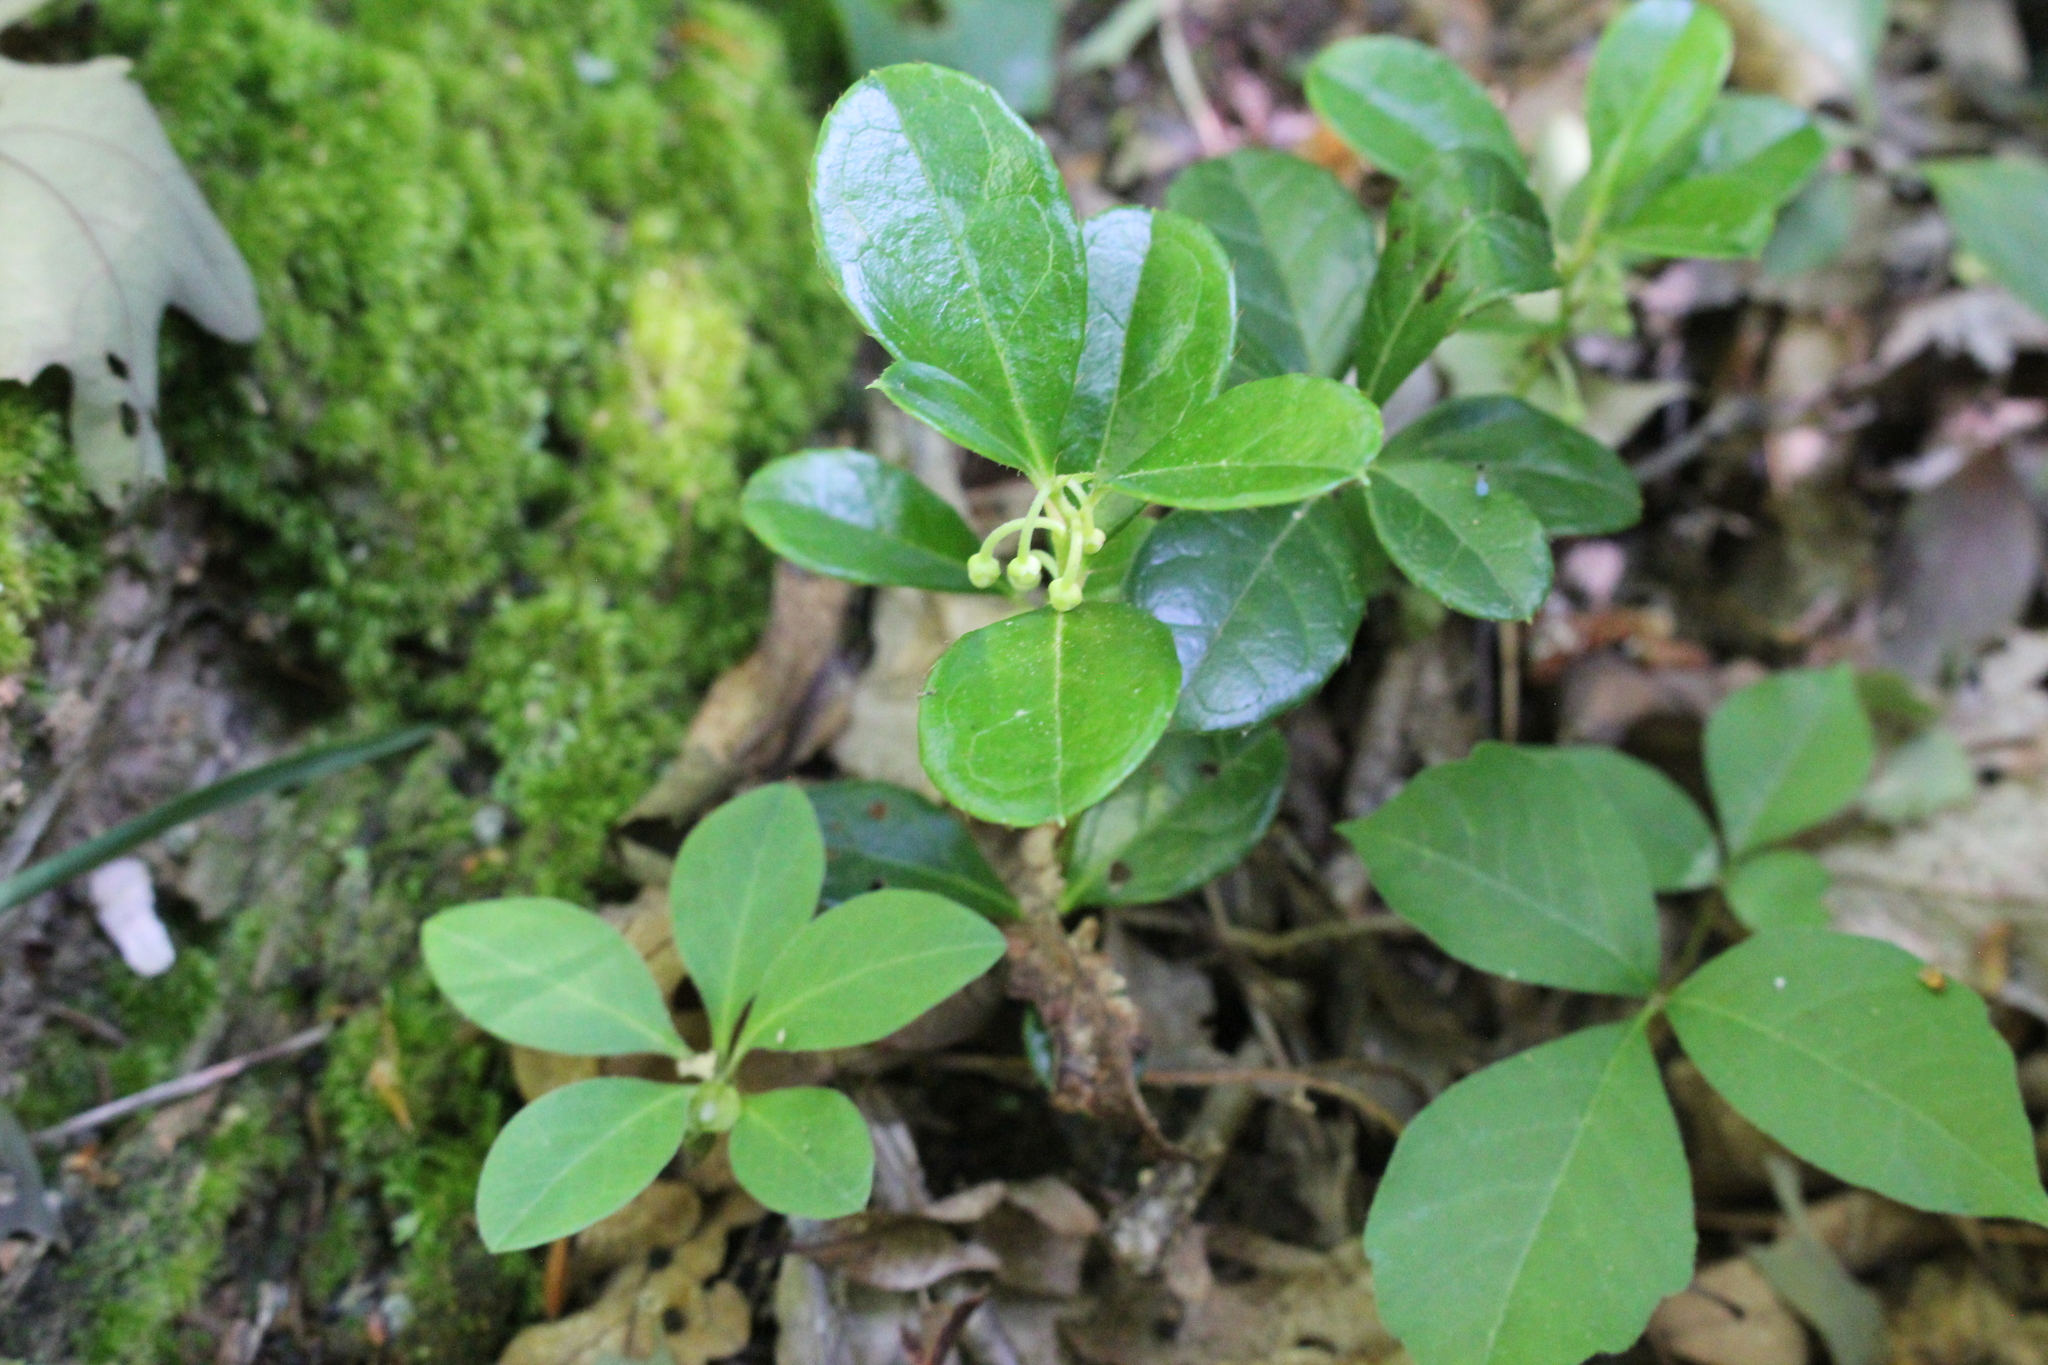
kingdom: Plantae
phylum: Tracheophyta
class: Magnoliopsida
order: Ericales
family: Ericaceae
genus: Gaultheria
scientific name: Gaultheria procumbens
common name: Checkerberry
